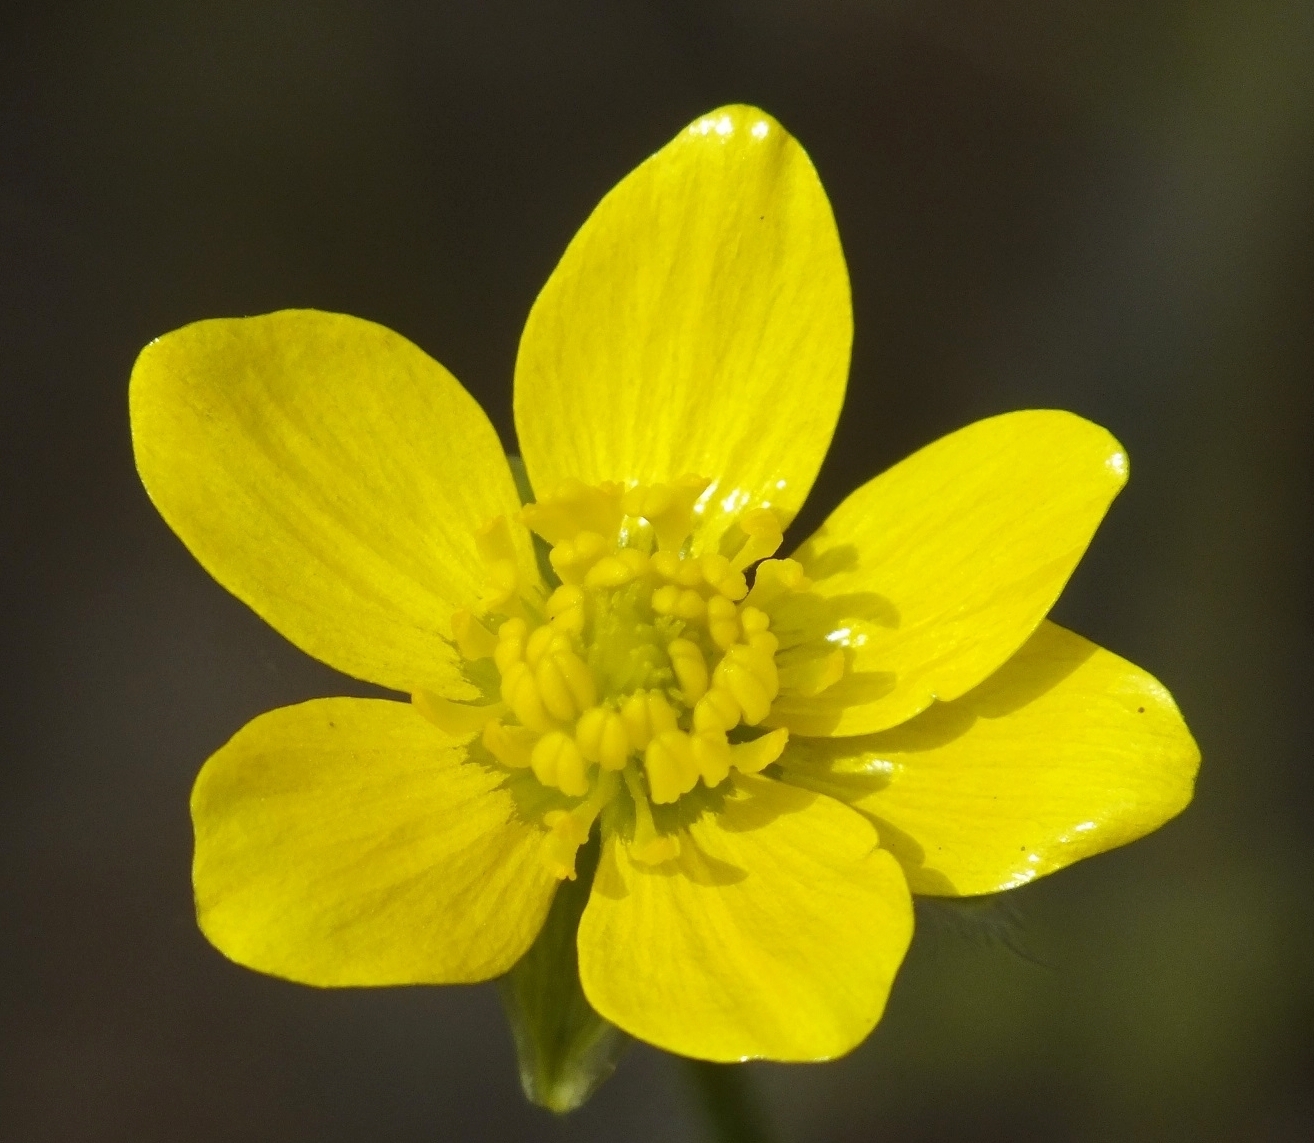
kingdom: Plantae
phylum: Tracheophyta
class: Magnoliopsida
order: Ranunculales
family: Ranunculaceae
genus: Ranunculus
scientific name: Ranunculus oxyspermus
